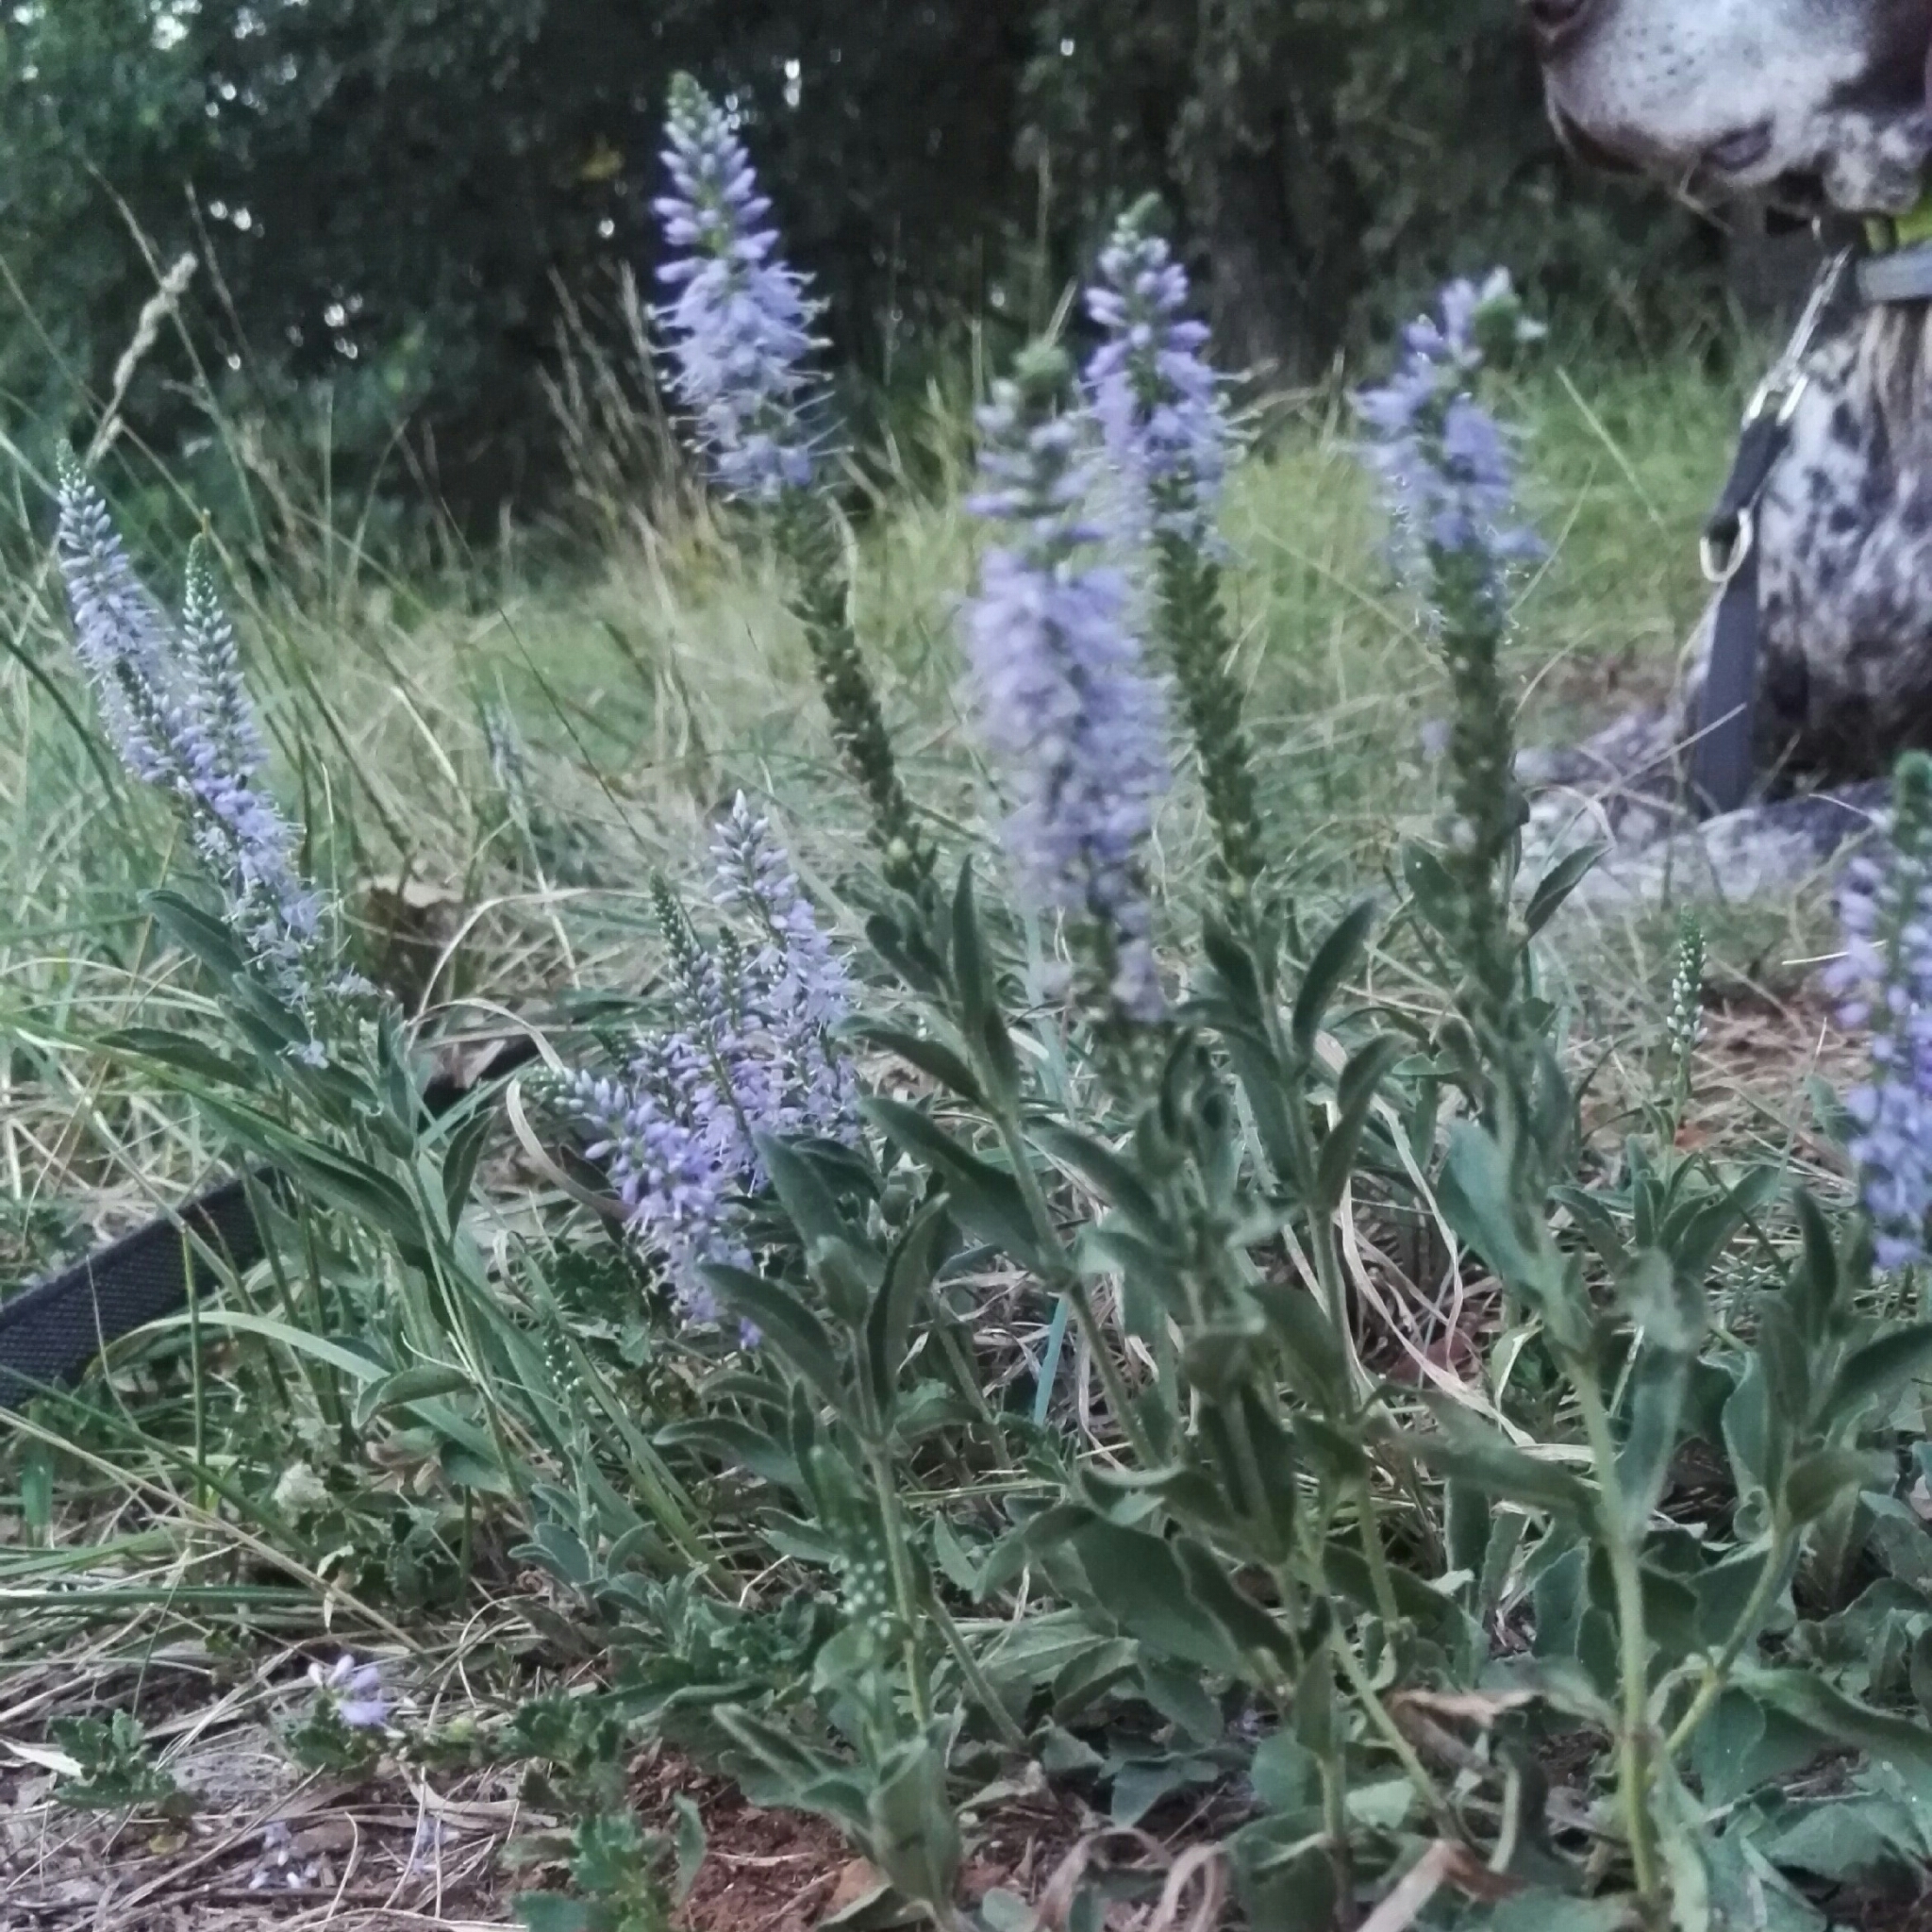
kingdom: Plantae
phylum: Tracheophyta
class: Magnoliopsida
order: Lamiales
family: Plantaginaceae
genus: Veronica
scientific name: Veronica barrelieri
